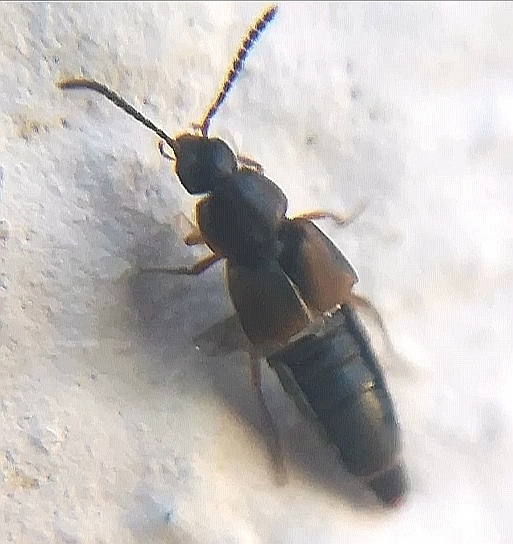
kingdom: Animalia
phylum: Arthropoda
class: Insecta
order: Coleoptera
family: Staphylinidae
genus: Oxypoda
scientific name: Oxypoda acuminata
